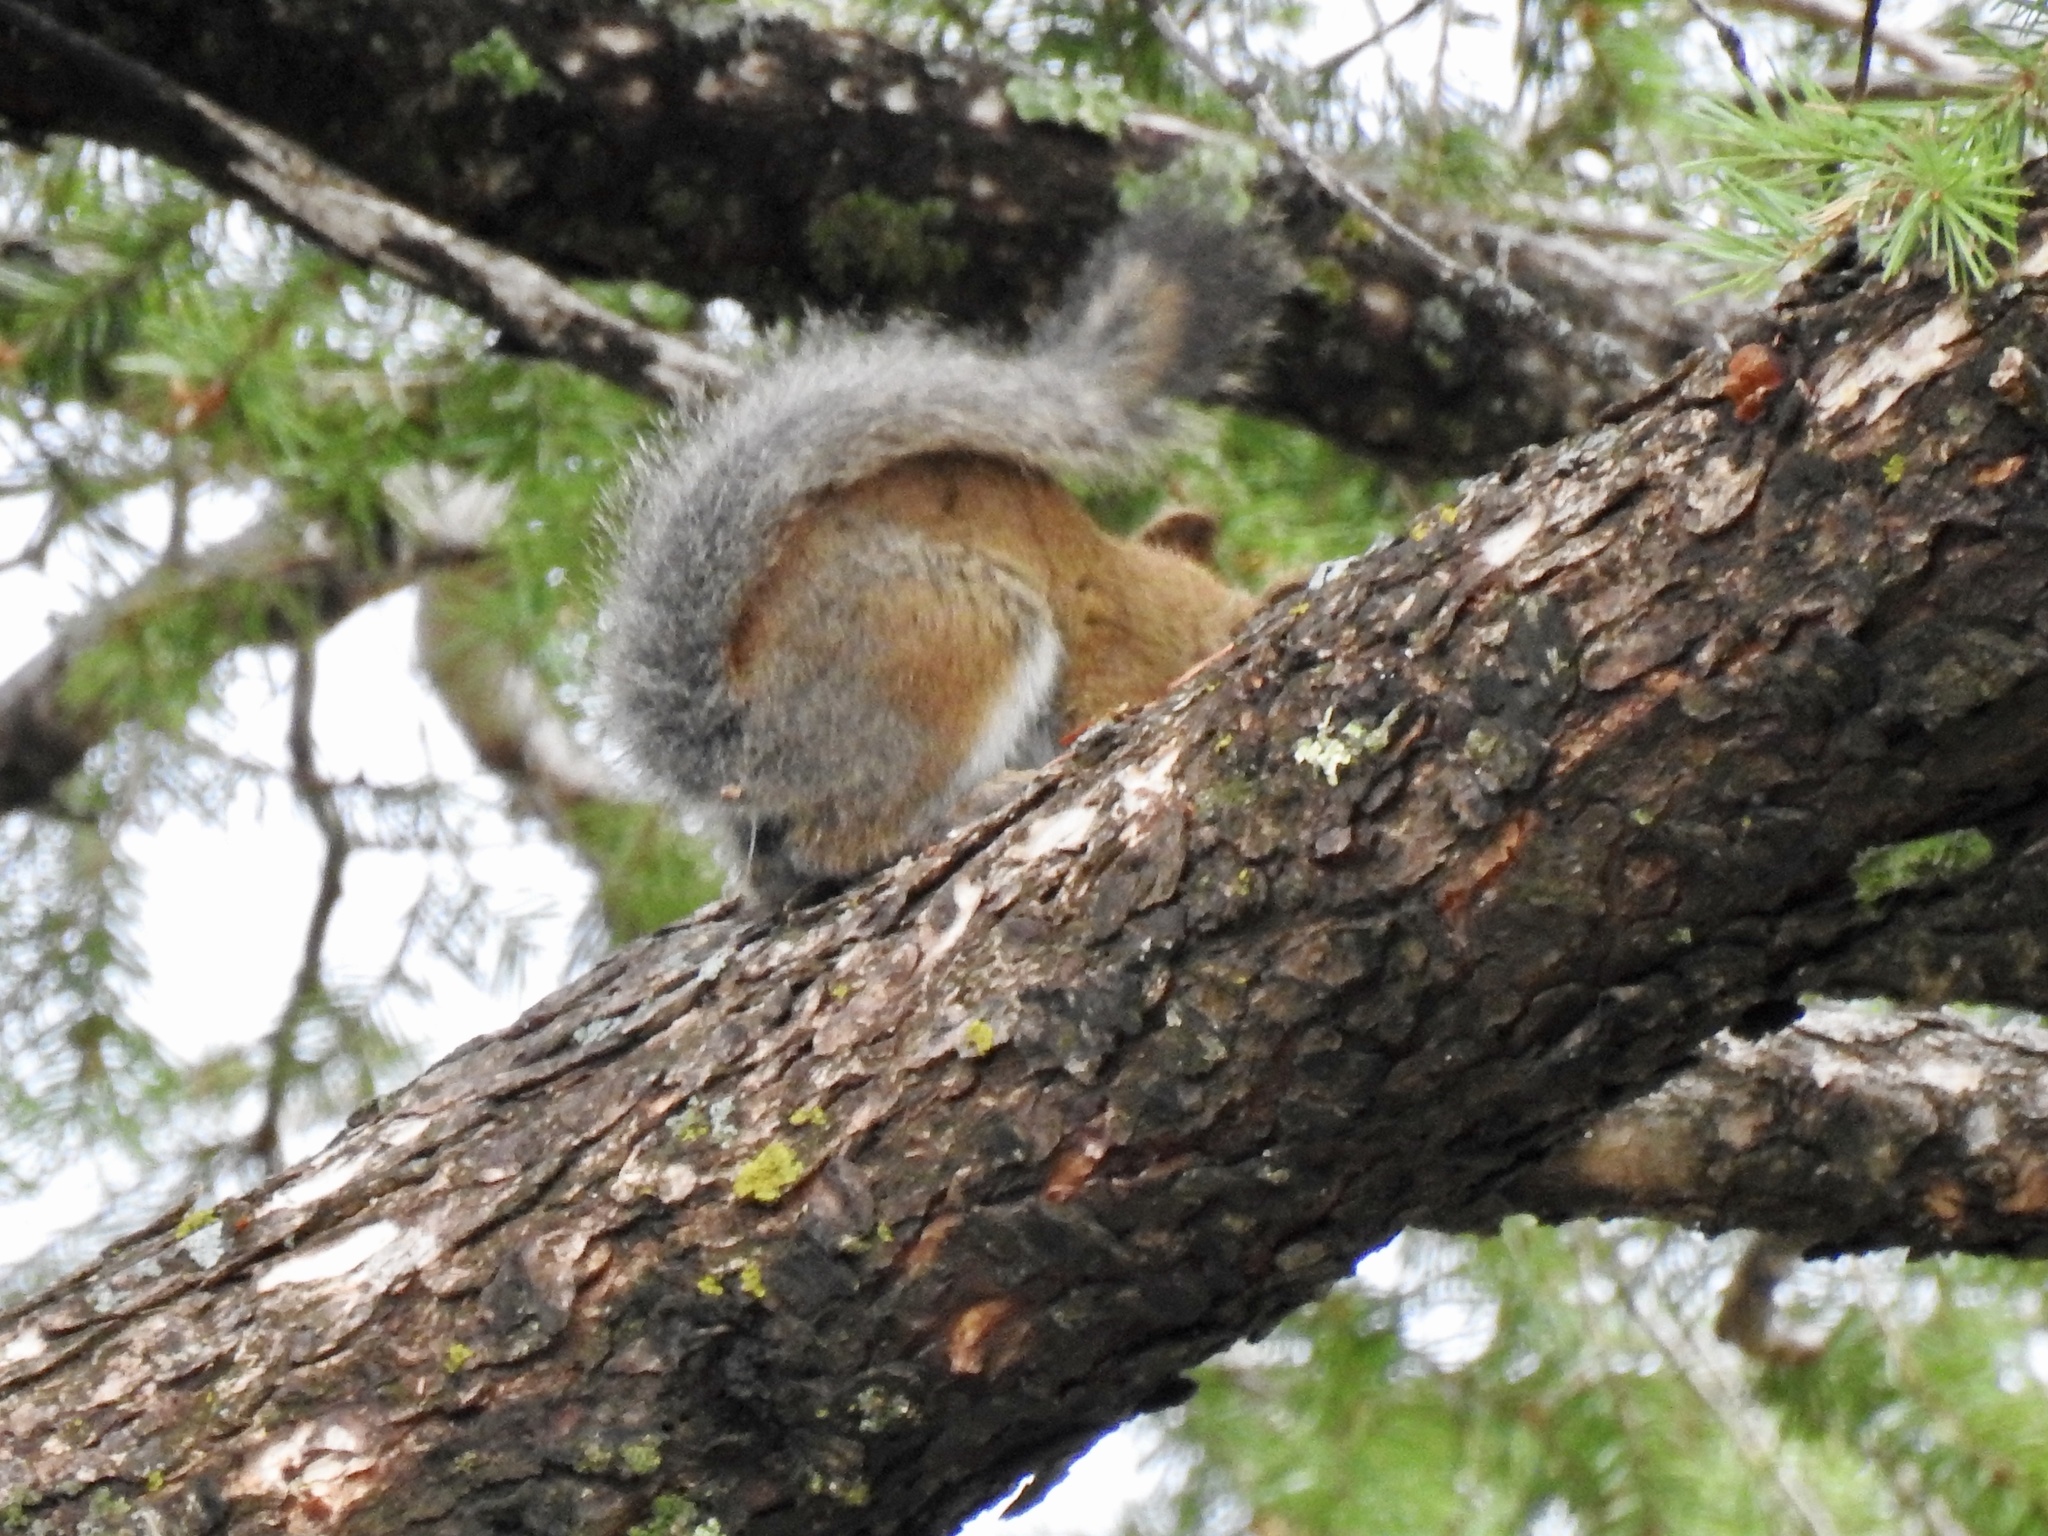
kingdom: Animalia
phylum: Chordata
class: Mammalia
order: Rodentia
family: Sciuridae
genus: Tamiasciurus
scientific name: Tamiasciurus hudsonicus
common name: Red squirrel
